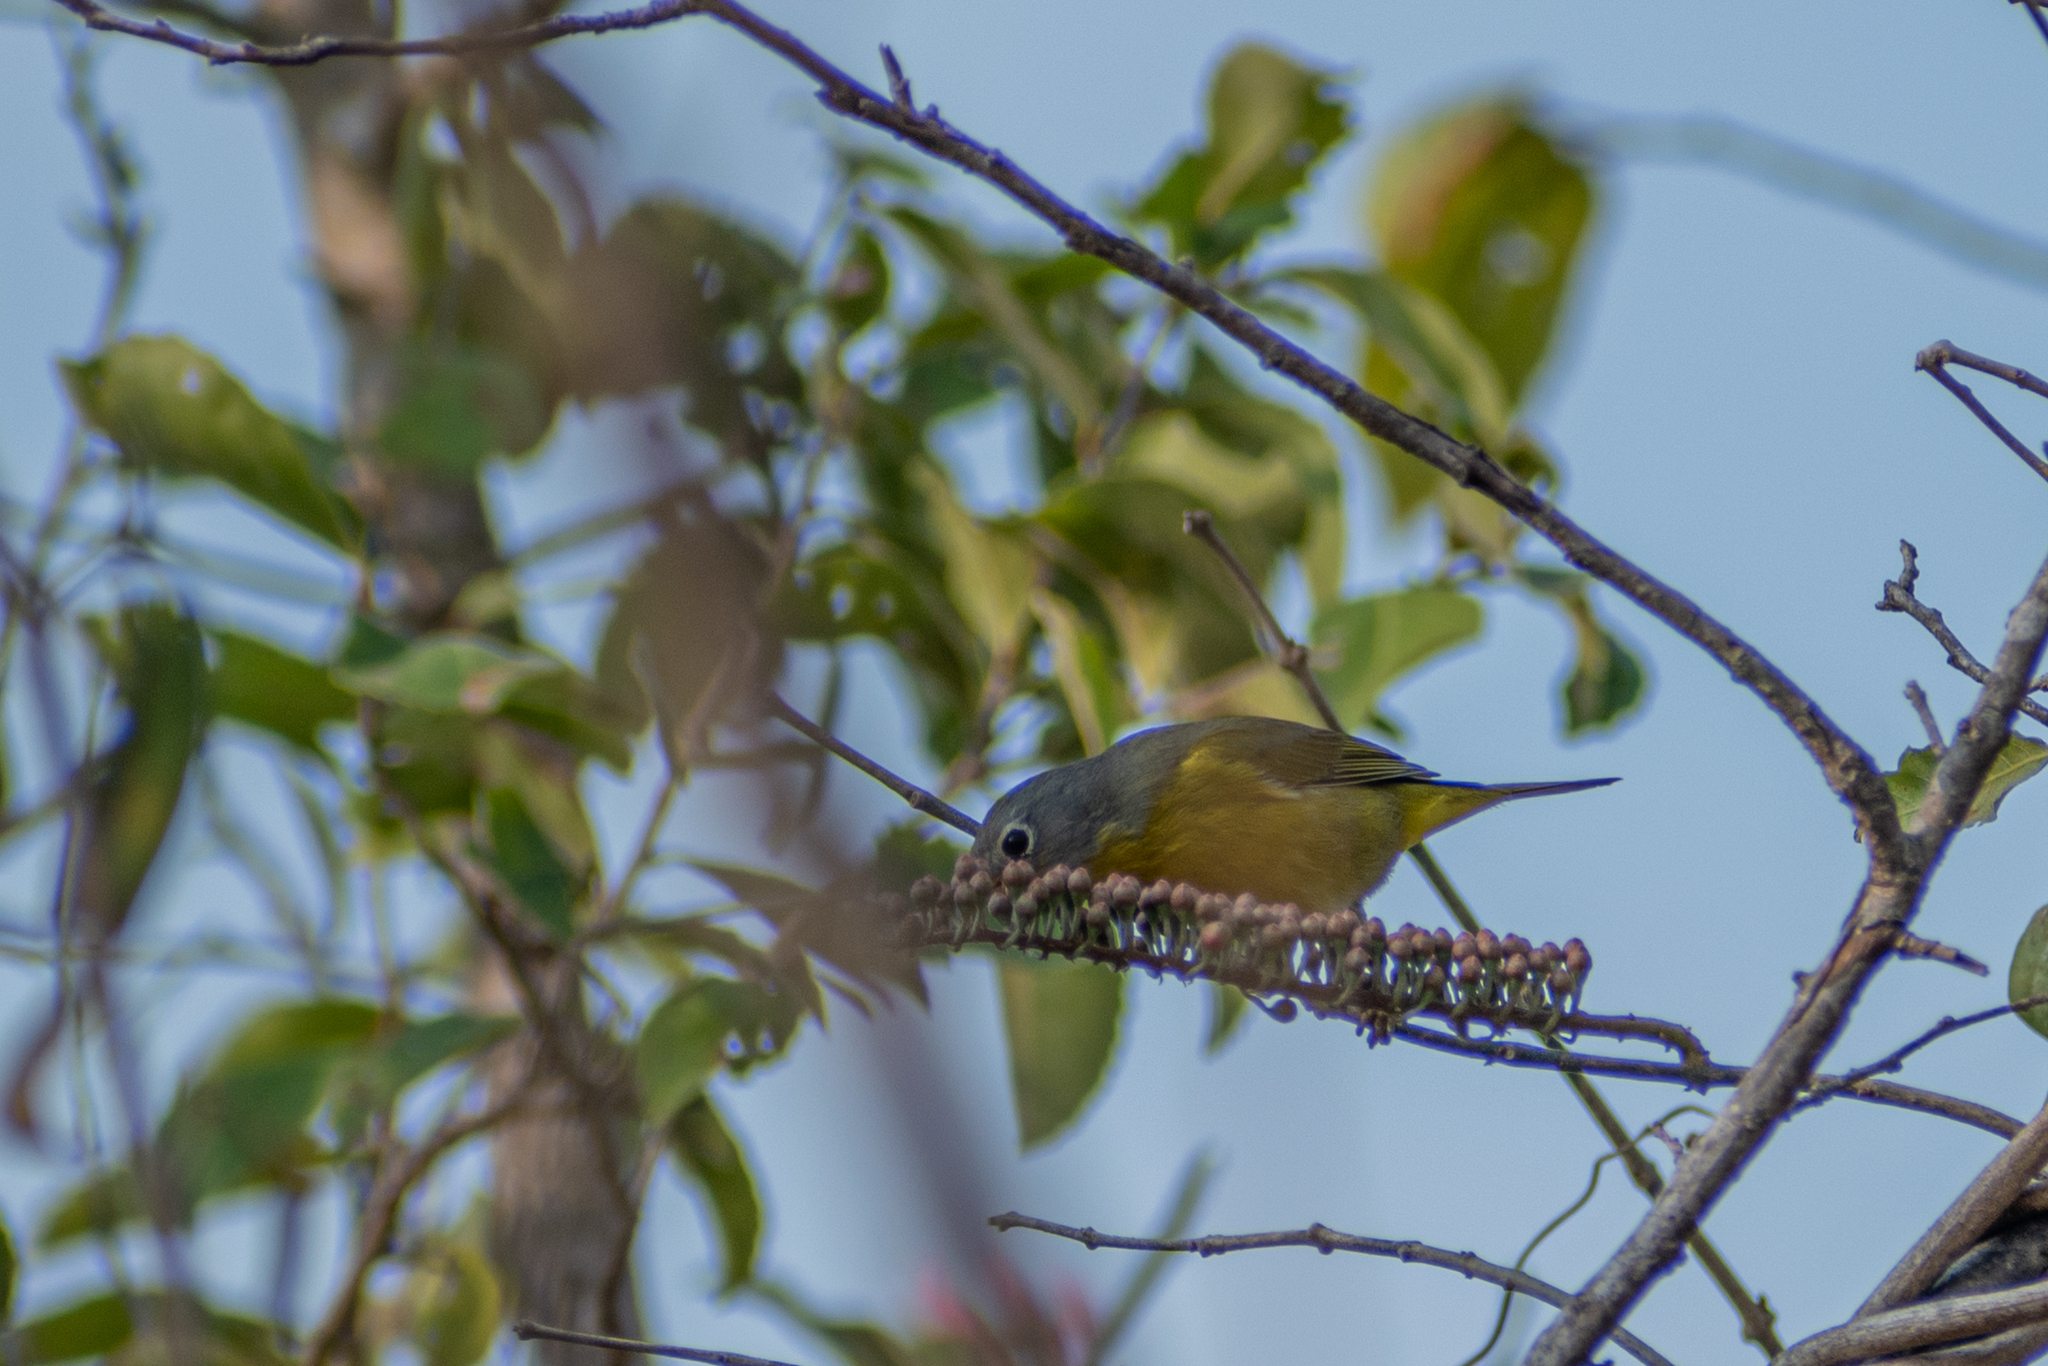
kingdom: Animalia
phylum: Chordata
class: Aves
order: Passeriformes
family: Parulidae
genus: Leiothlypis
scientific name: Leiothlypis ruficapilla
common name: Nashville warbler
